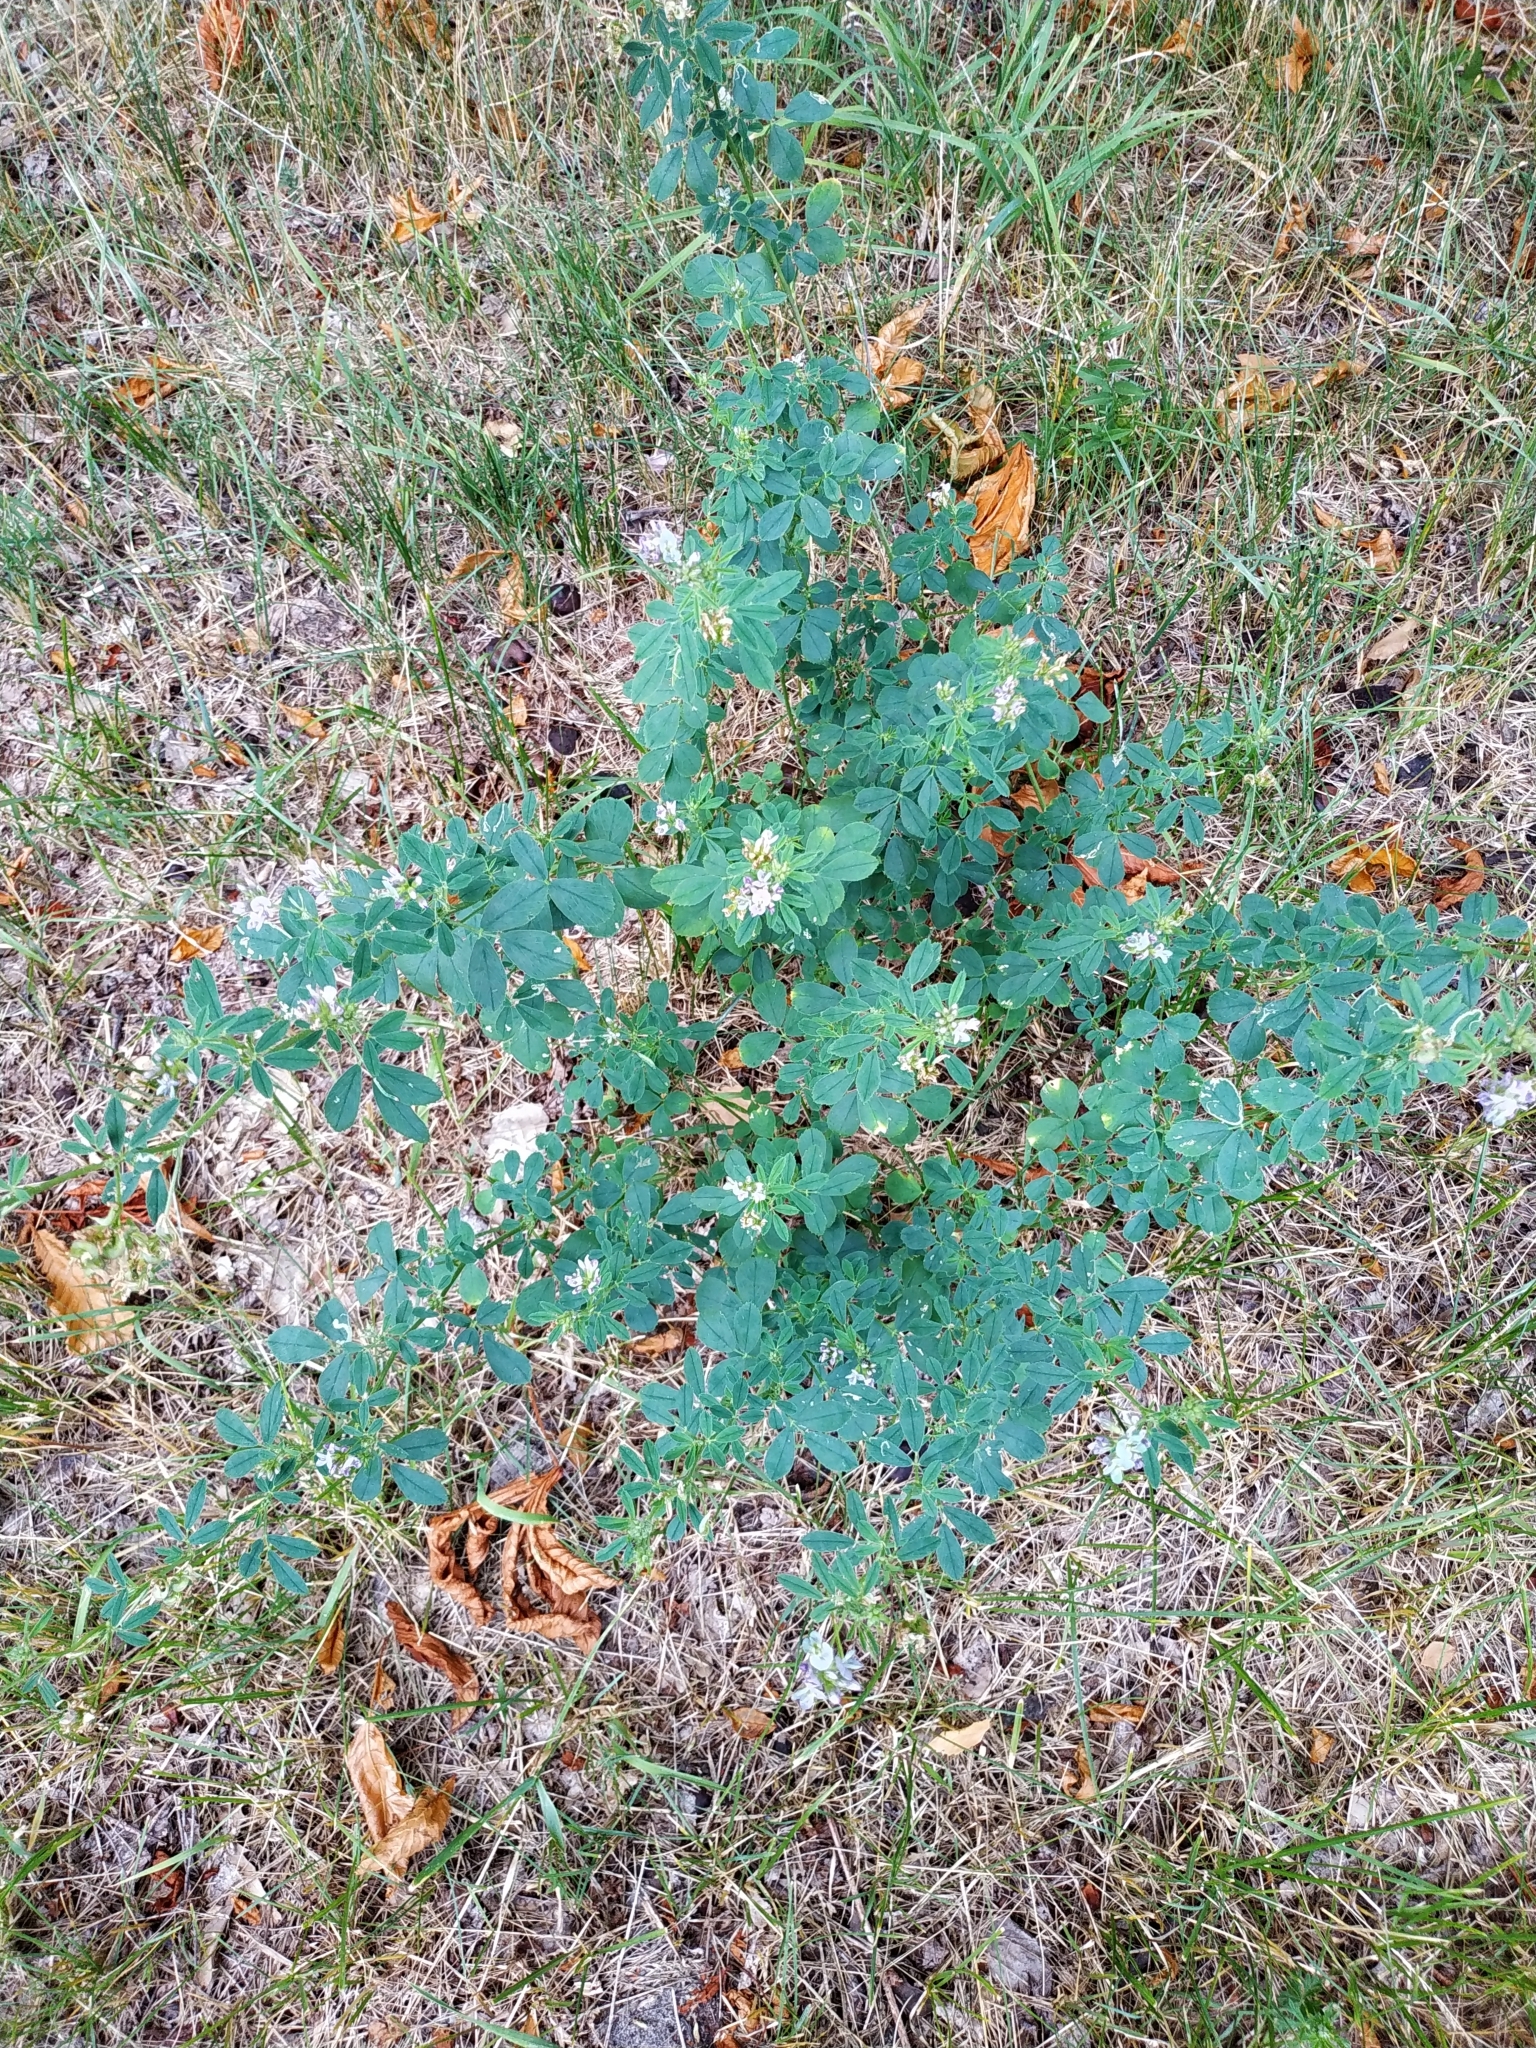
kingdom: Plantae
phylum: Tracheophyta
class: Magnoliopsida
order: Fabales
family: Fabaceae
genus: Medicago
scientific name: Medicago sativa
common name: Alfalfa
